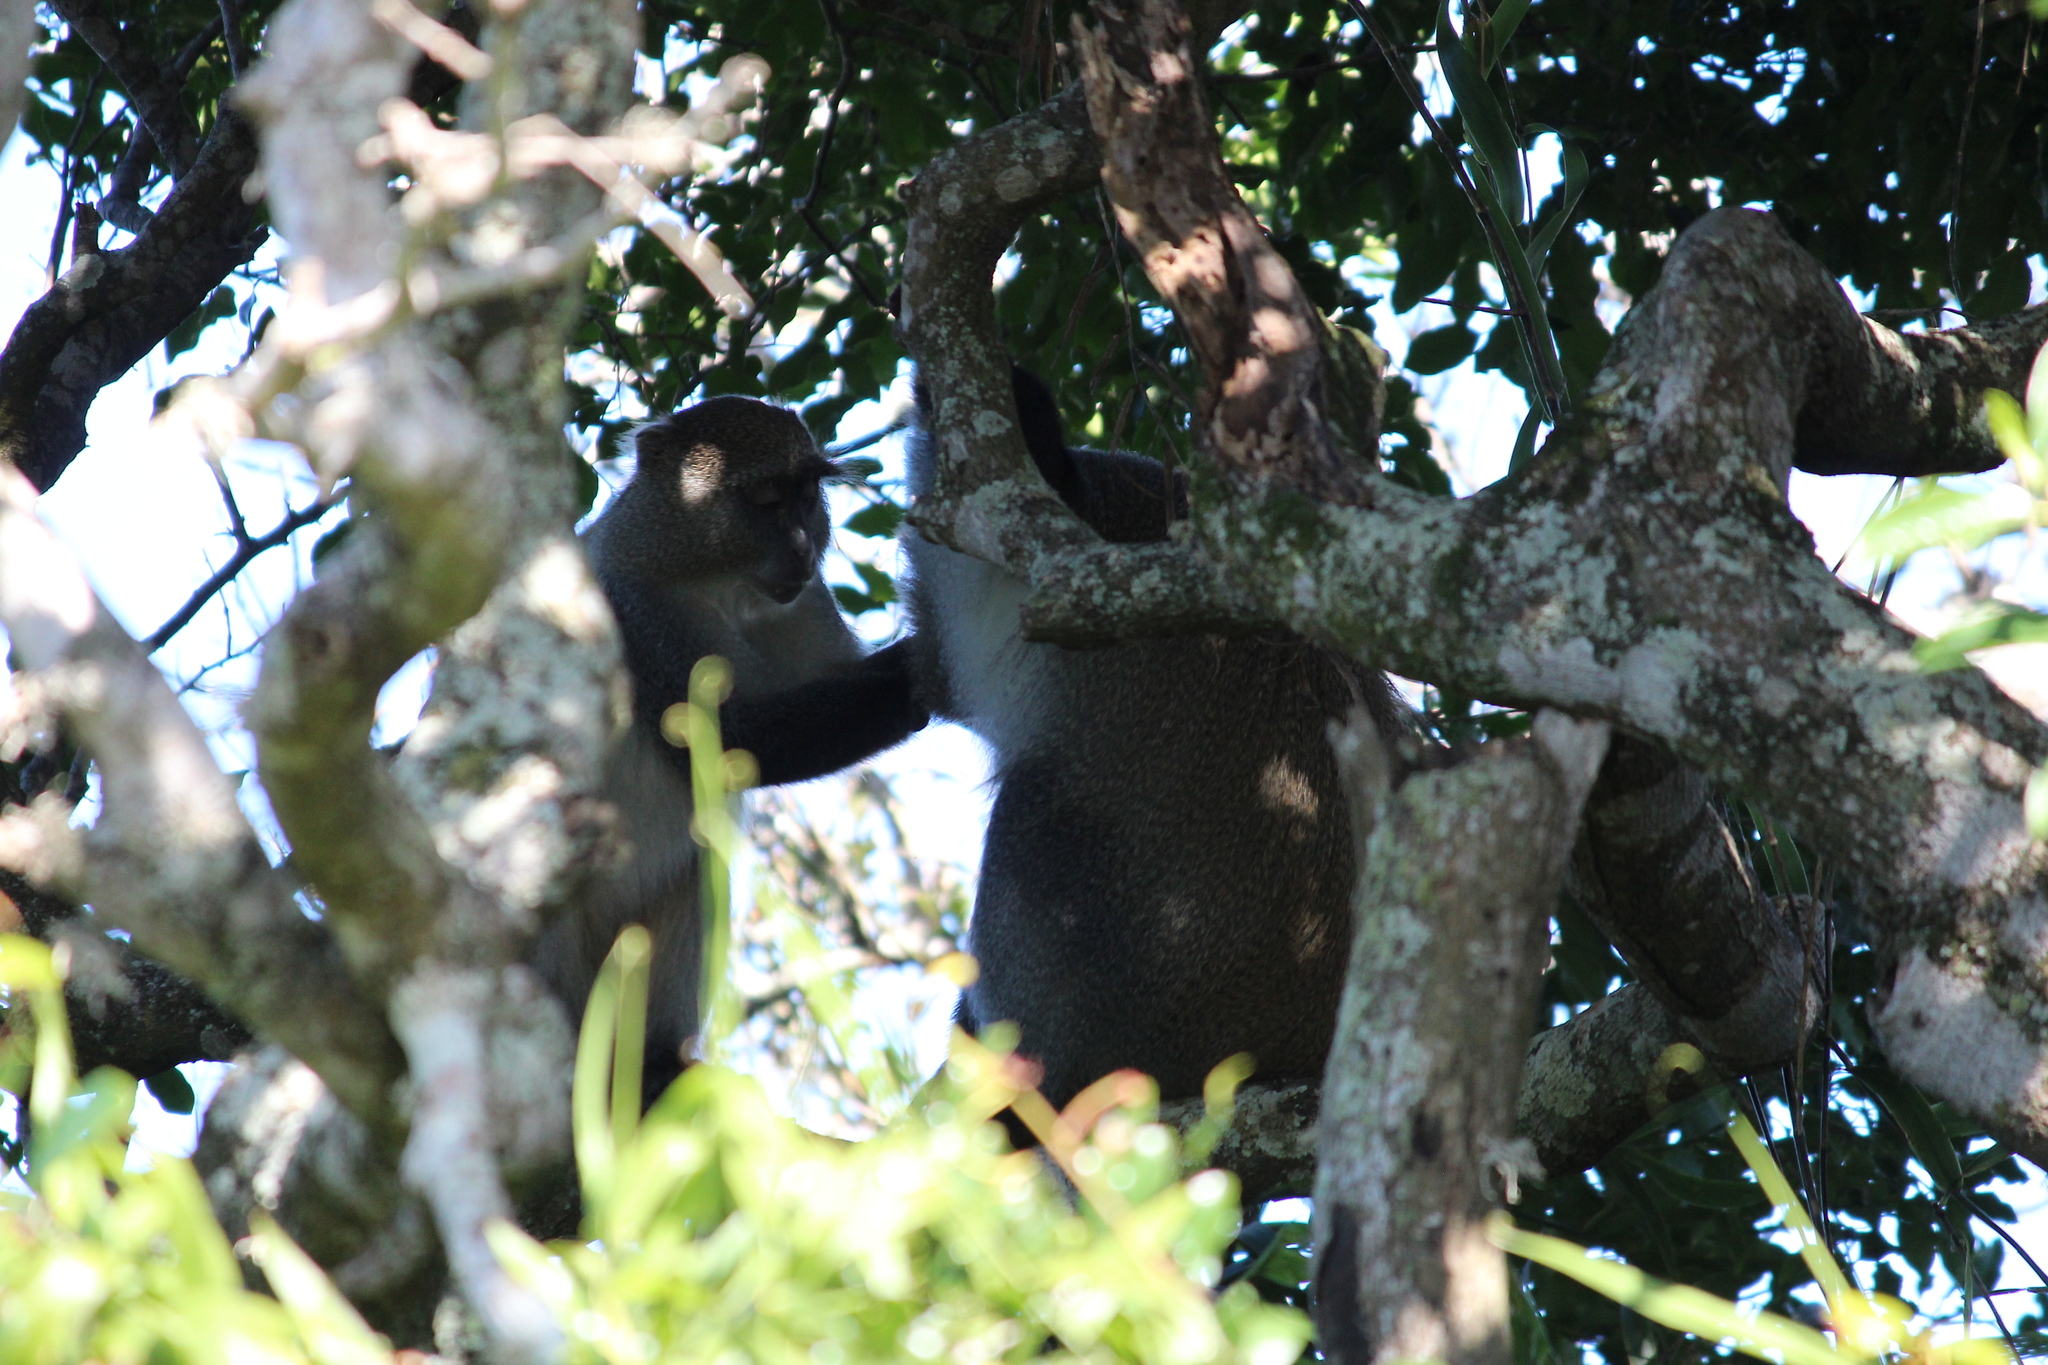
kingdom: Animalia
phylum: Chordata
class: Mammalia
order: Primates
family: Cercopithecidae
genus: Cercopithecus
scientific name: Cercopithecus mitis
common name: Blue monkey
